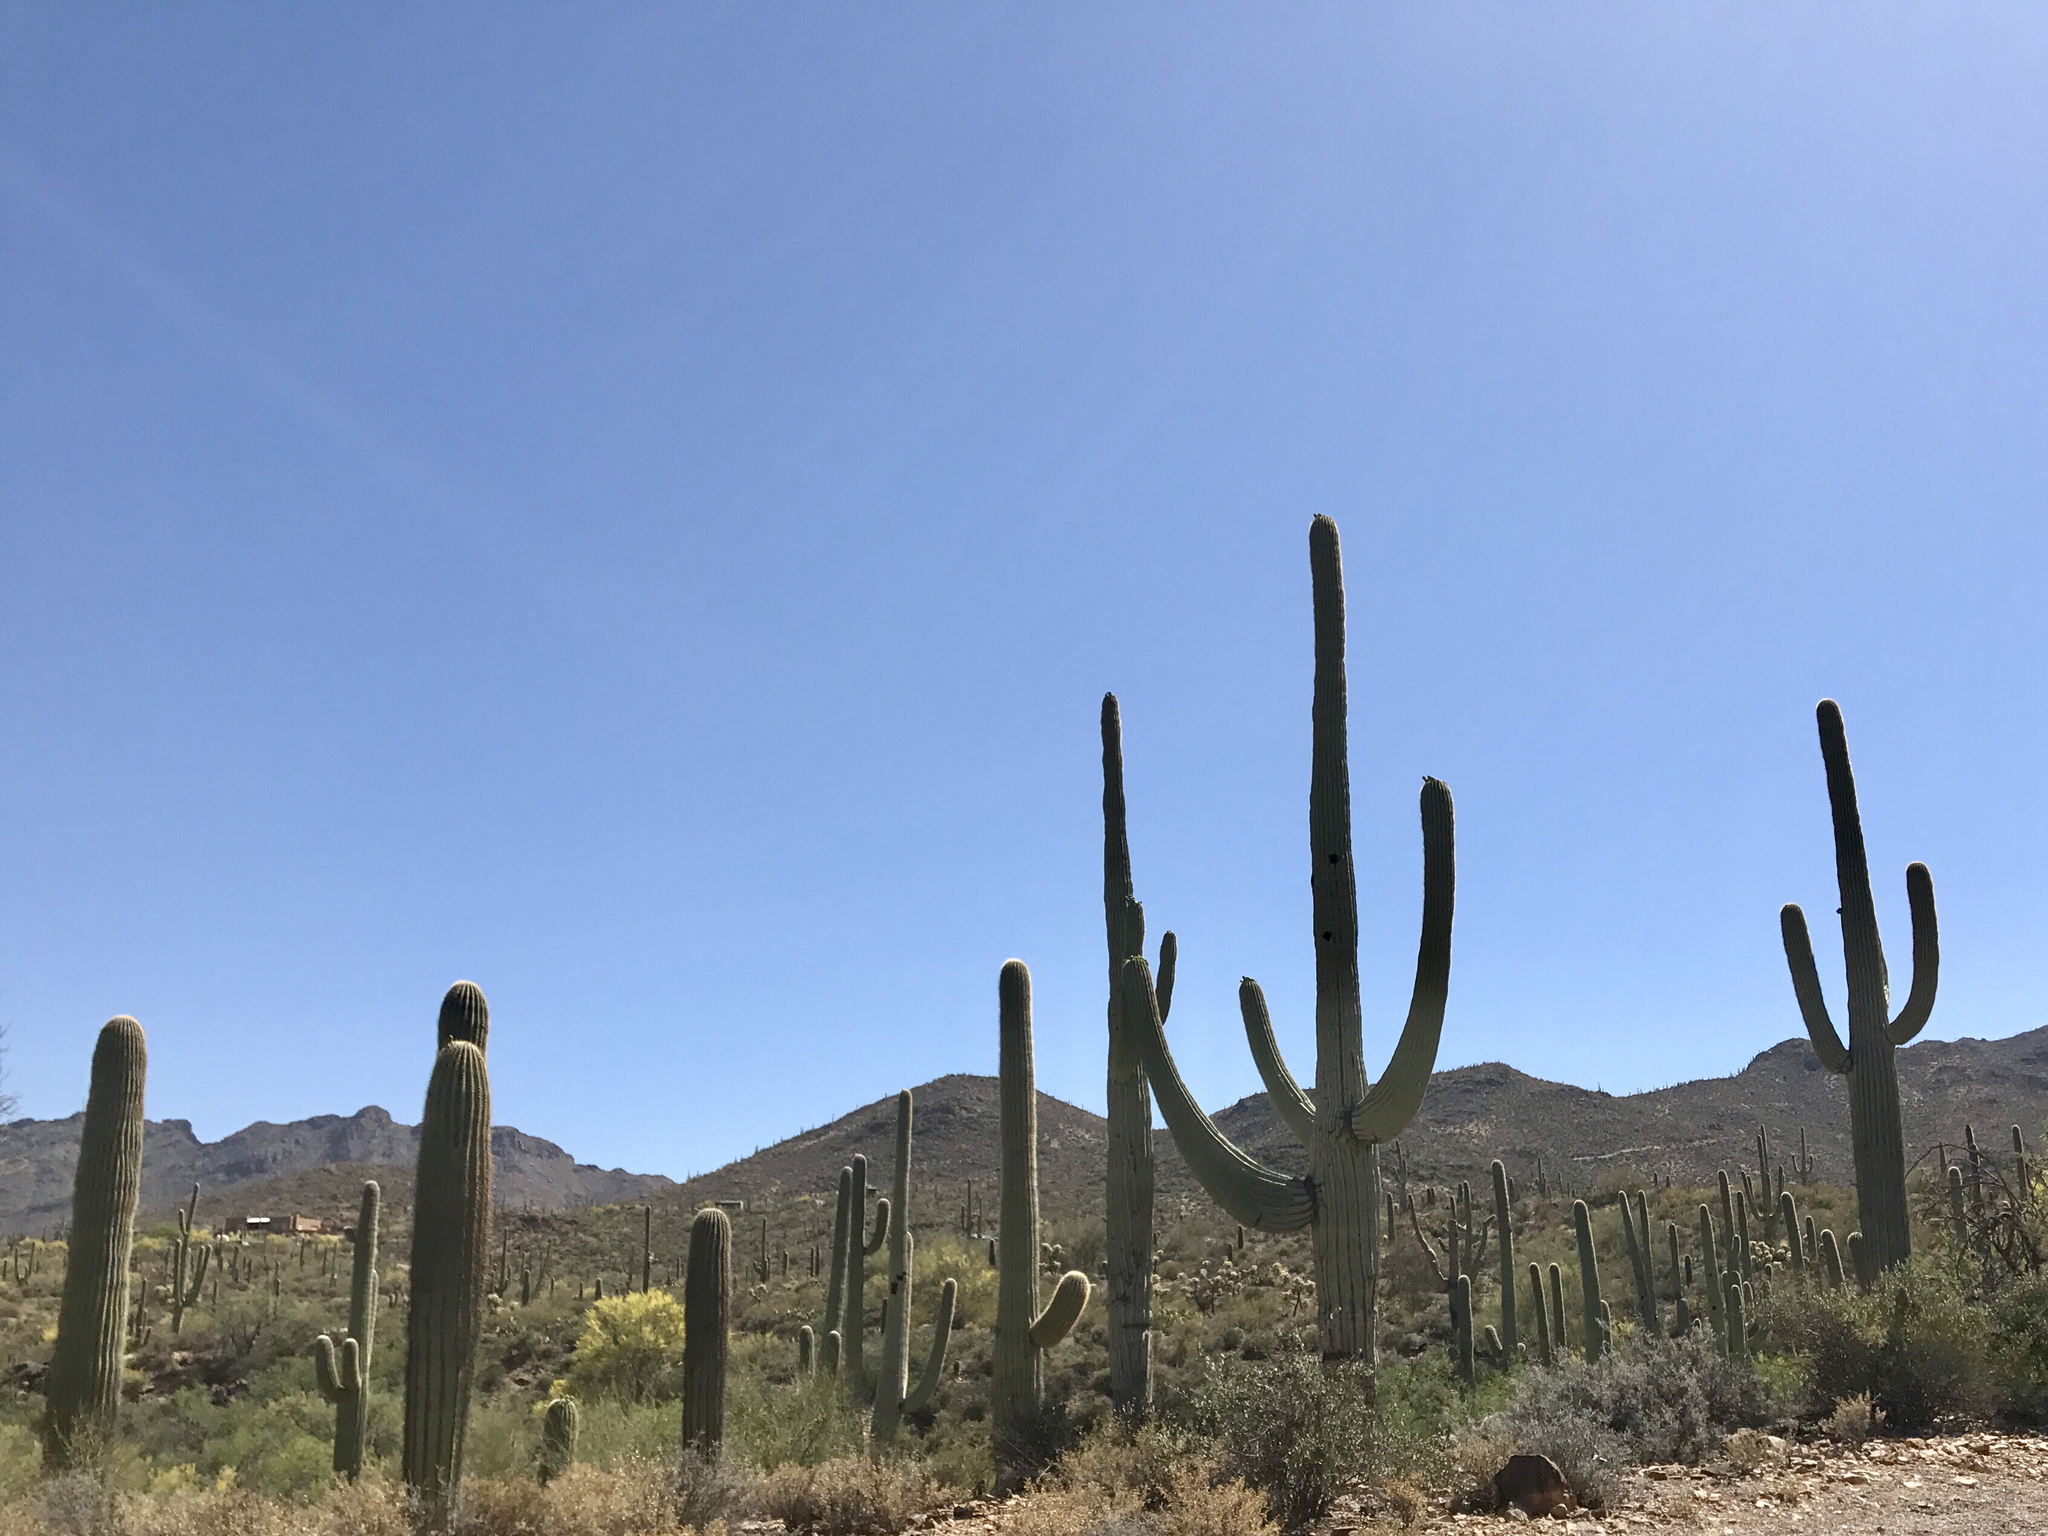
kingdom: Plantae
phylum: Tracheophyta
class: Magnoliopsida
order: Caryophyllales
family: Cactaceae
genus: Carnegiea
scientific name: Carnegiea gigantea
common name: Saguaro
